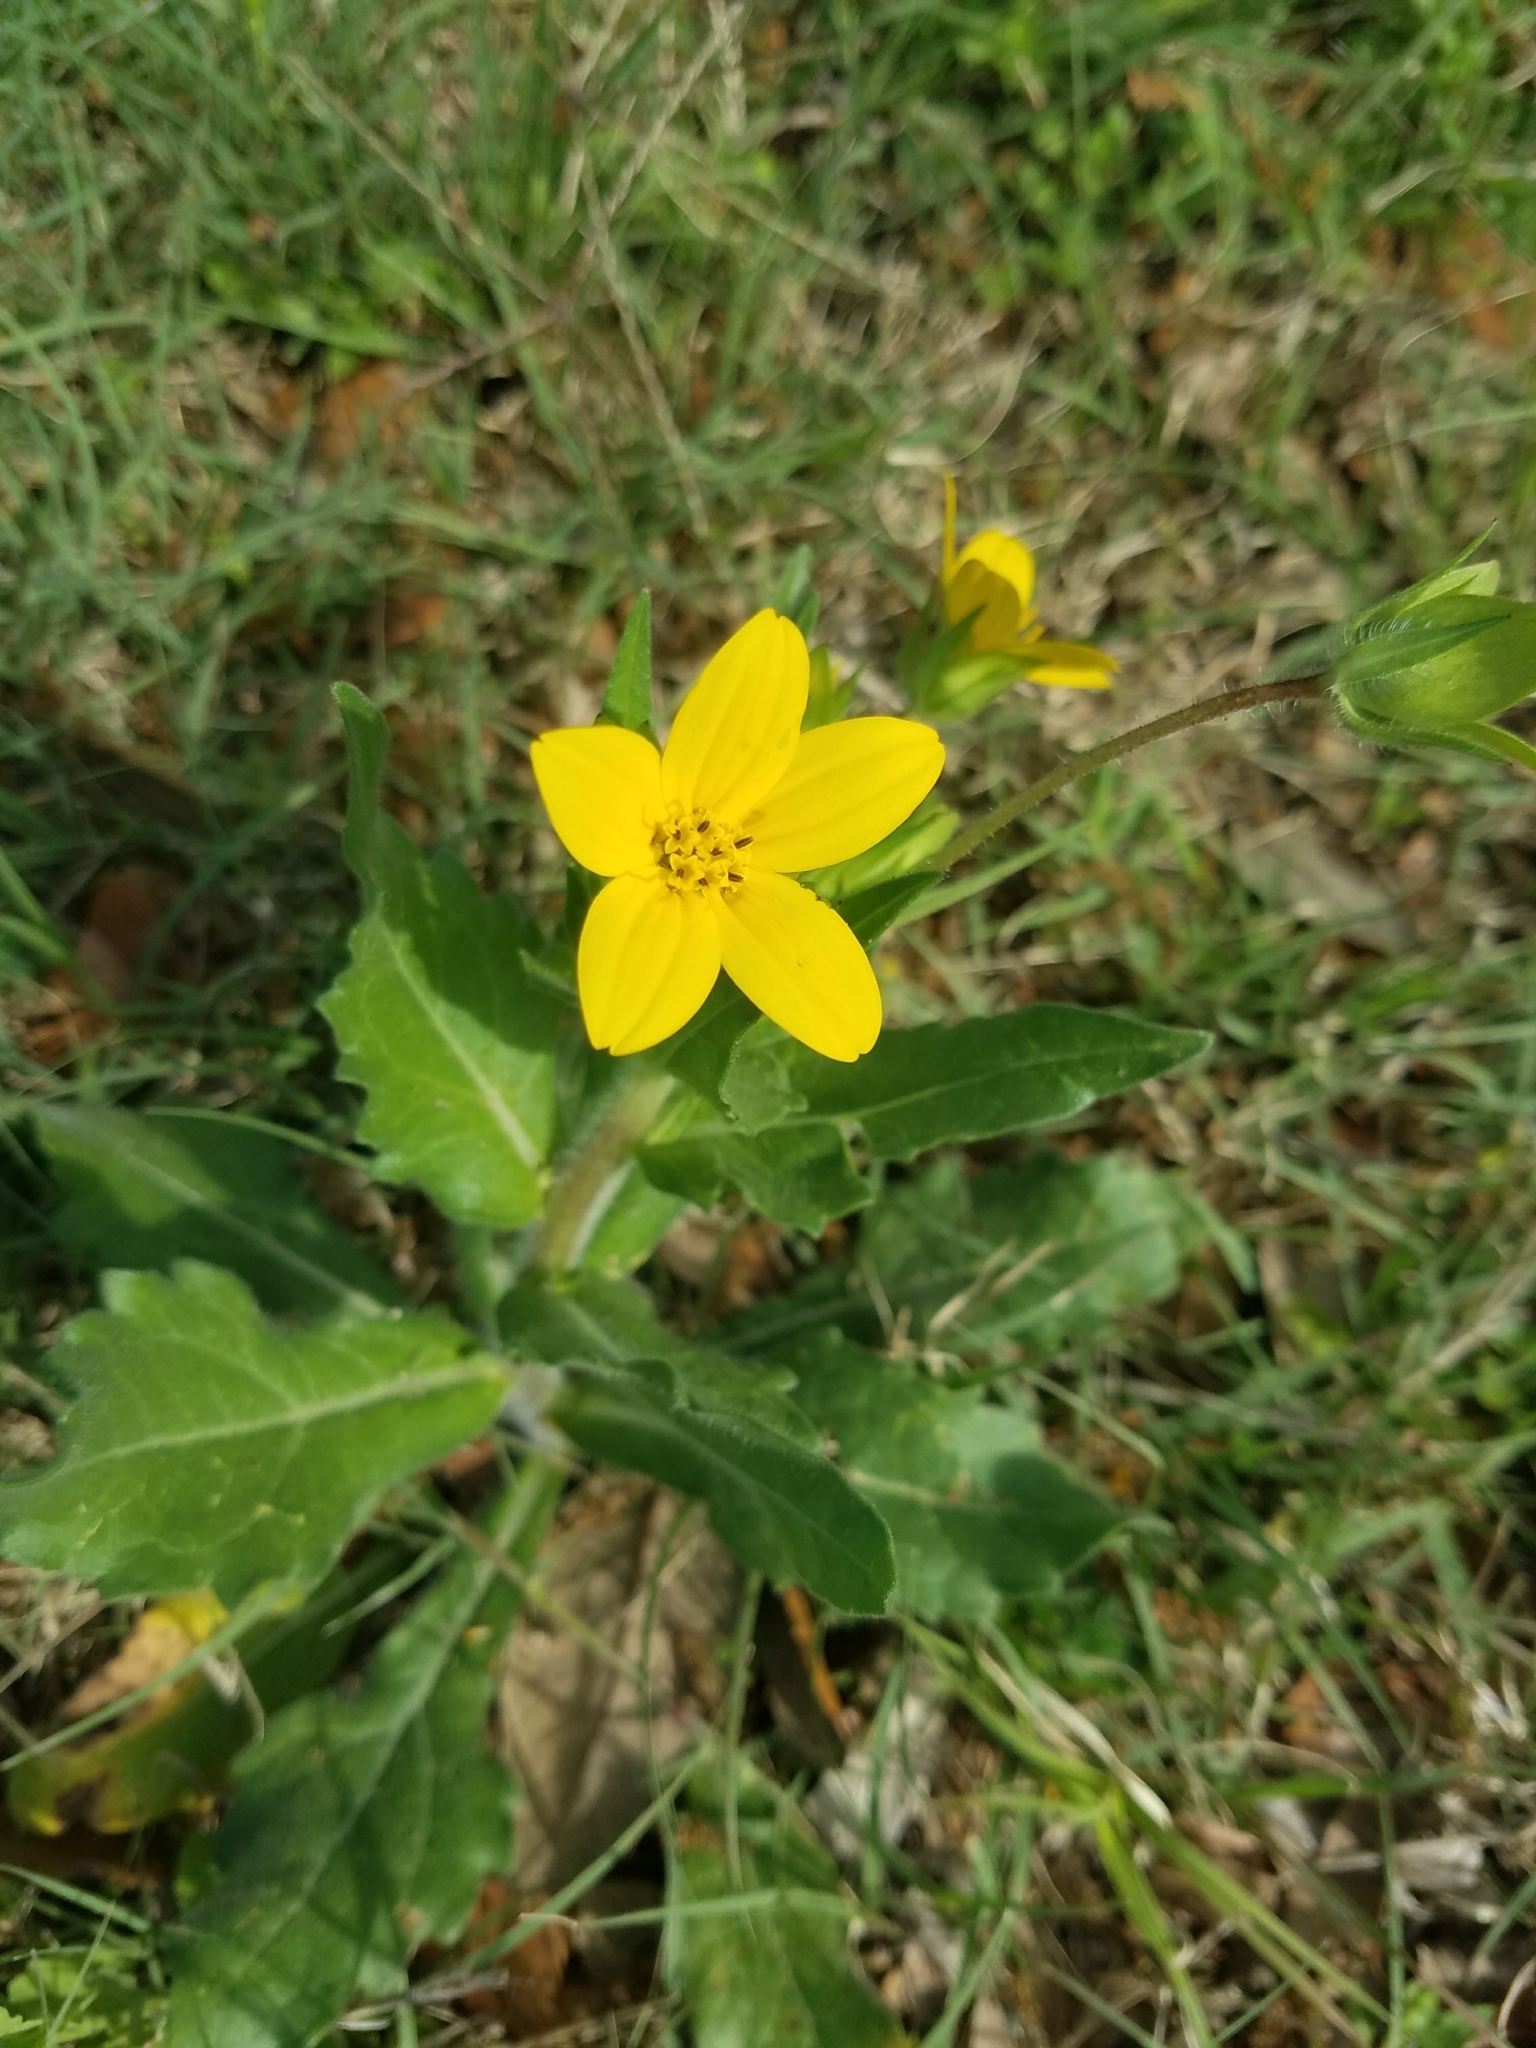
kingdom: Plantae
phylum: Tracheophyta
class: Magnoliopsida
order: Asterales
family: Asteraceae
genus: Lindheimera
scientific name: Lindheimera texana
